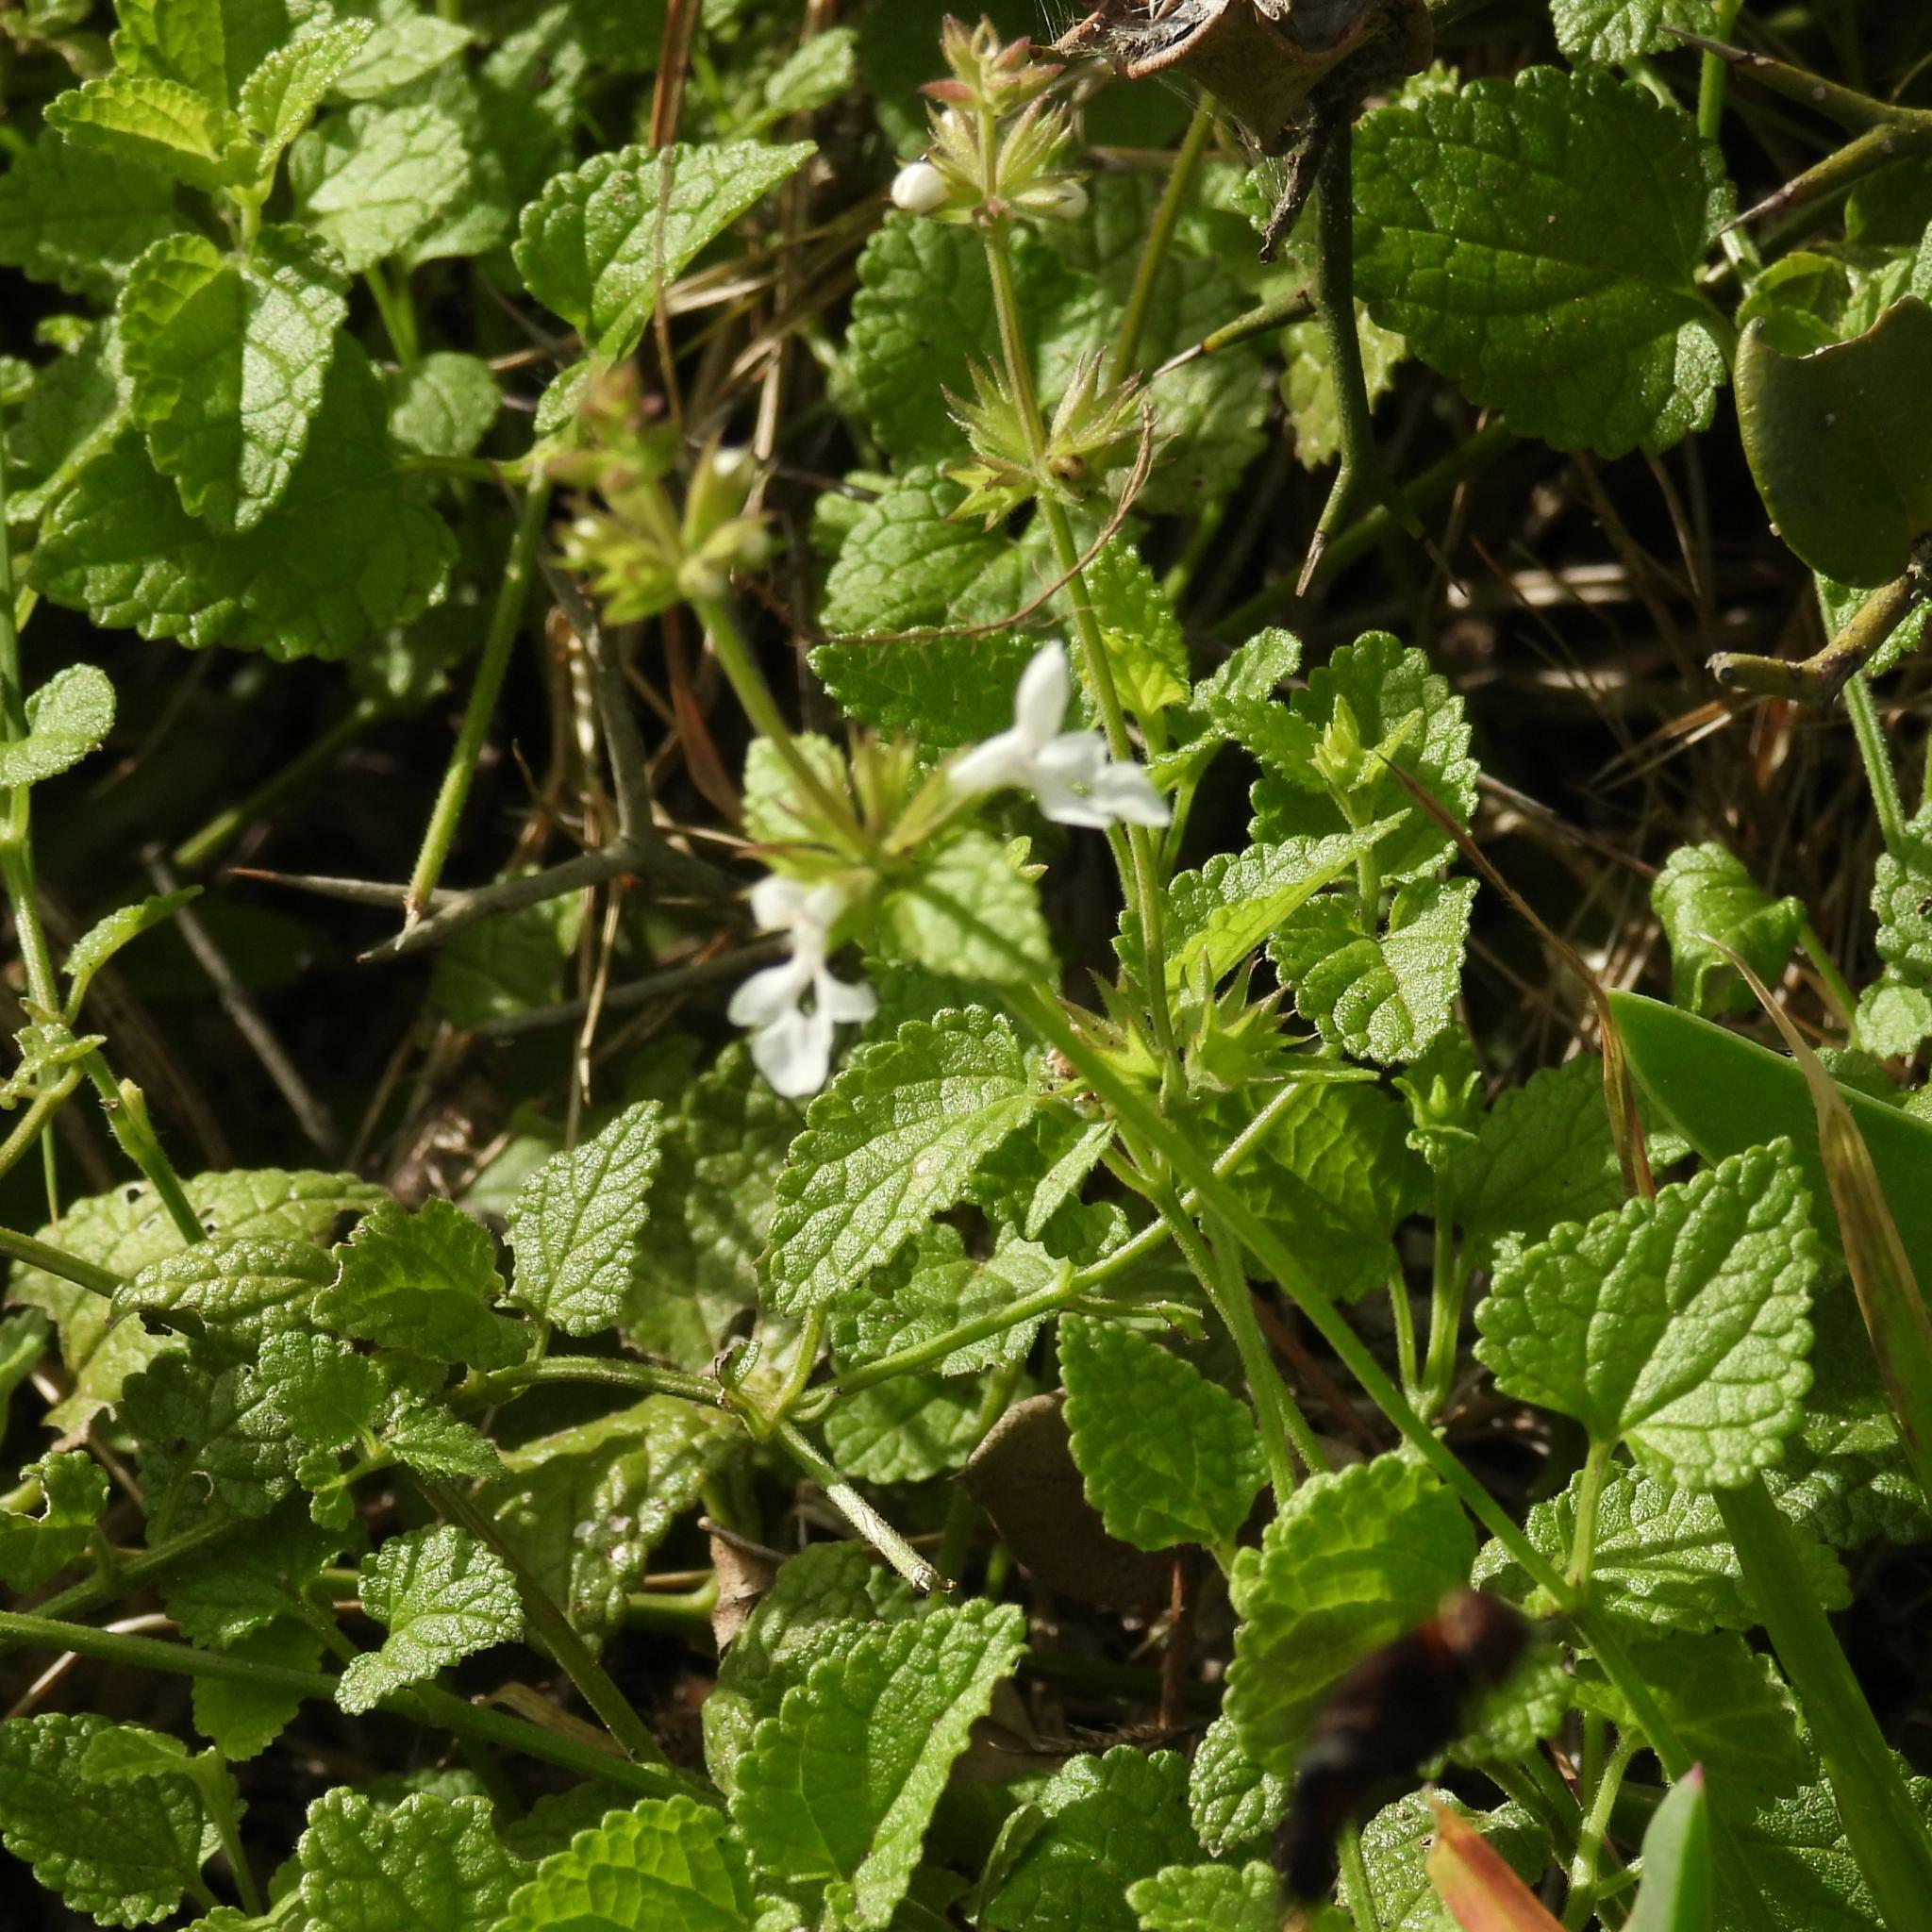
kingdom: Plantae
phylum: Tracheophyta
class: Magnoliopsida
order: Lamiales
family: Lamiaceae
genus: Stachys
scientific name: Stachys aethiopica
